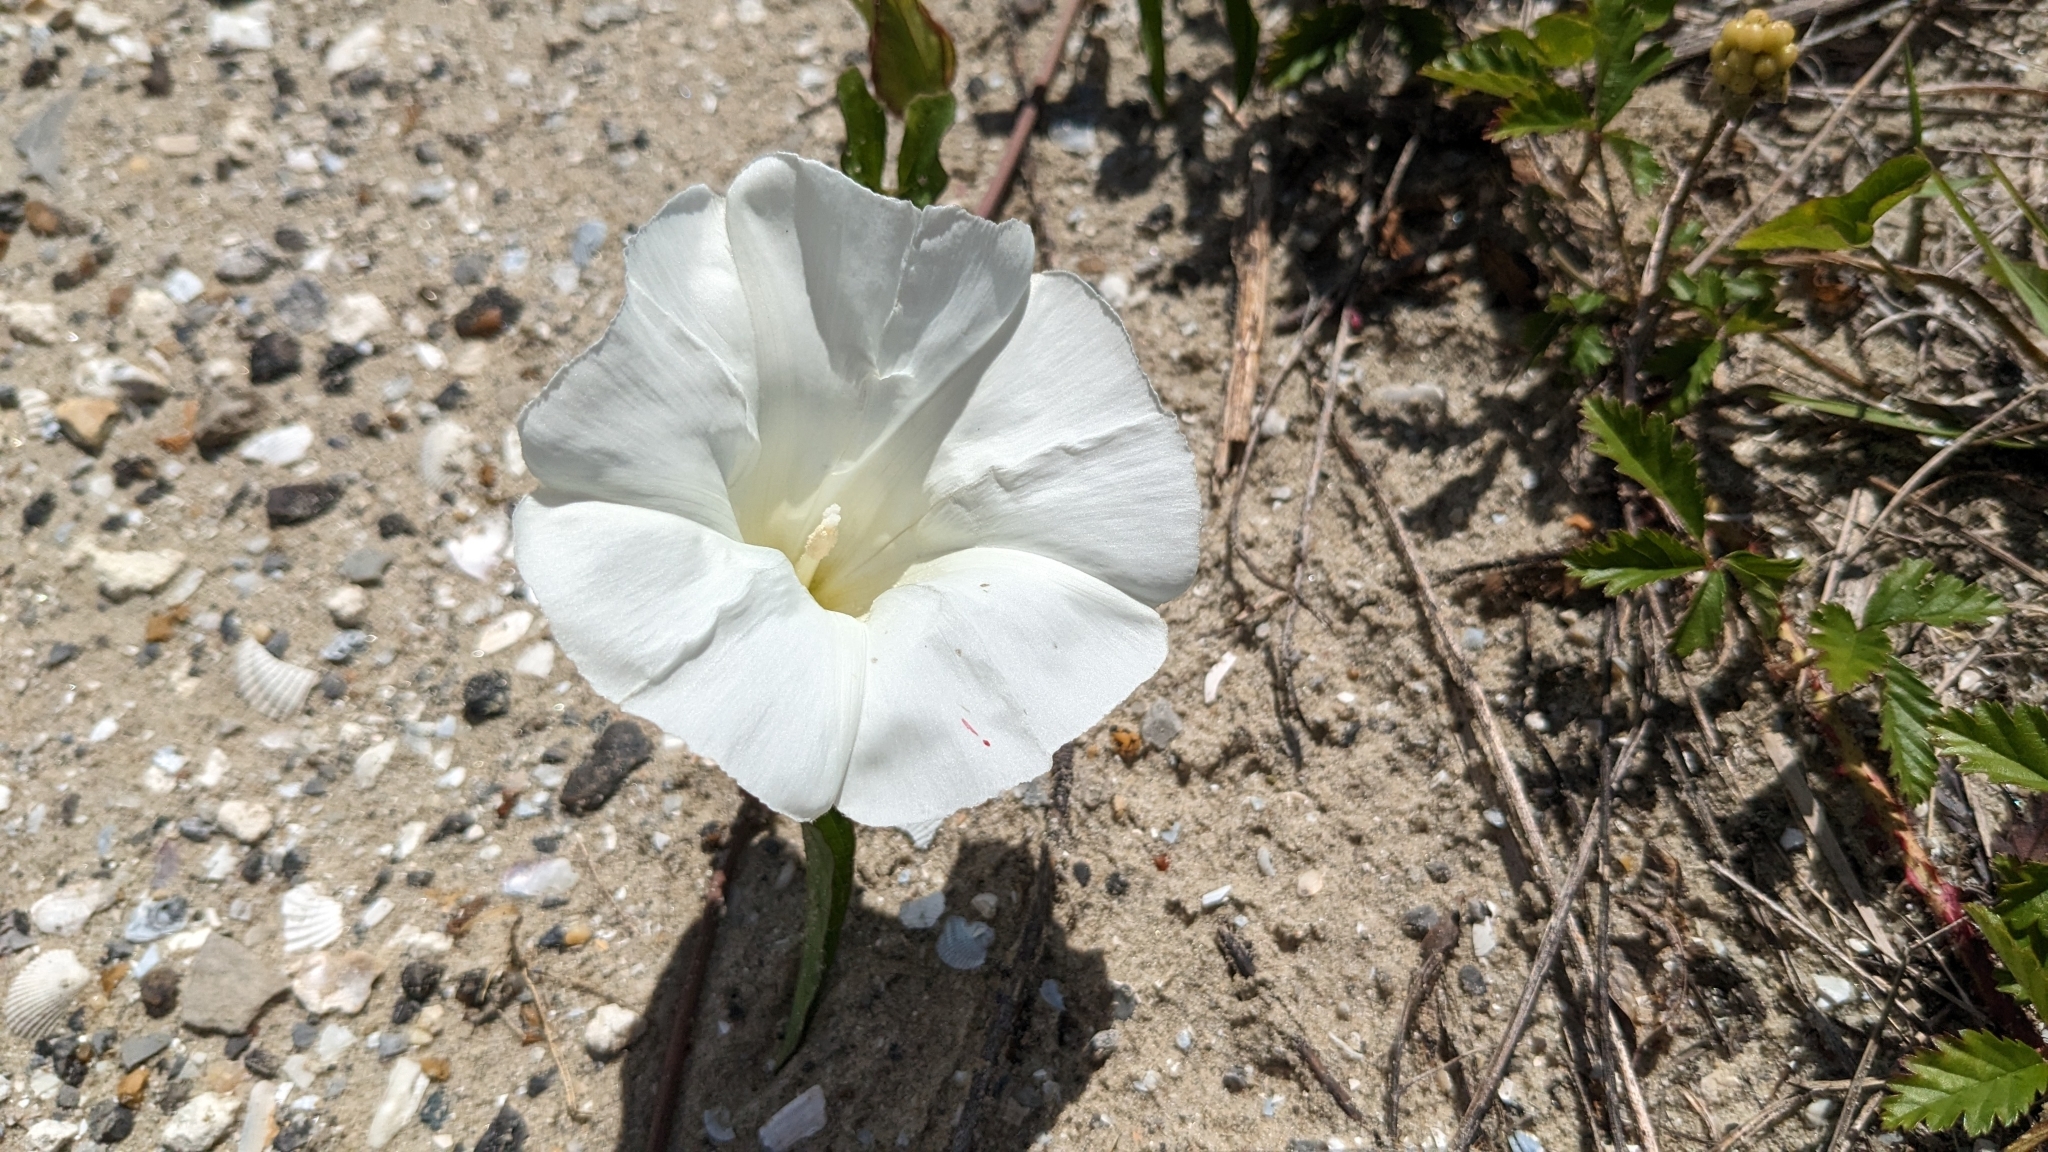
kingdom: Plantae
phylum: Tracheophyta
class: Magnoliopsida
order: Solanales
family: Convolvulaceae
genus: Ipomoea
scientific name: Ipomoea imperati
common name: Fiddle-leaf morning-glory
